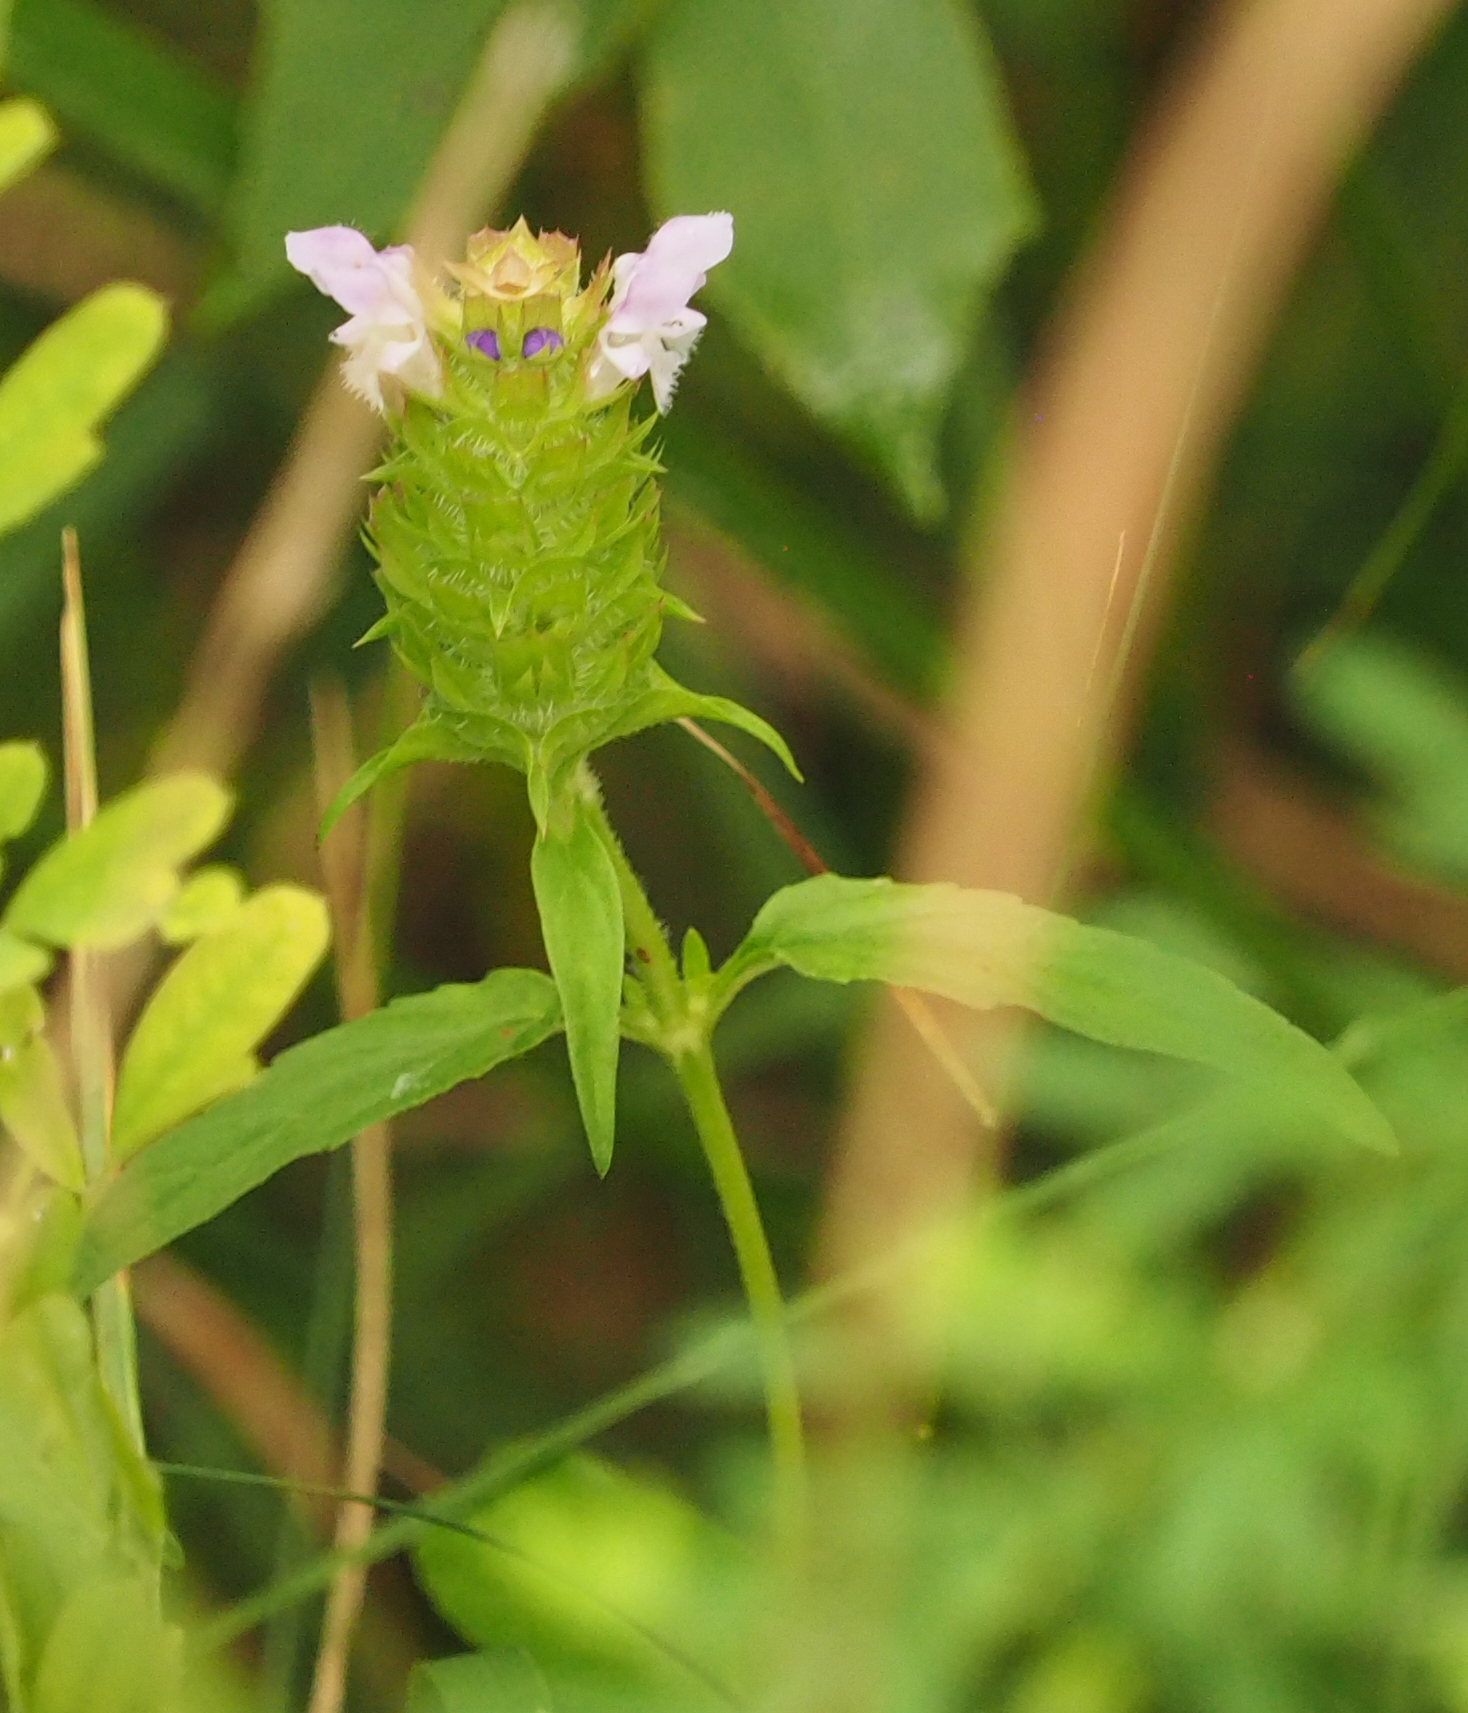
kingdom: Plantae
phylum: Tracheophyta
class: Magnoliopsida
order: Lamiales
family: Lamiaceae
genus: Prunella
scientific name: Prunella vulgaris
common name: Heal-all
